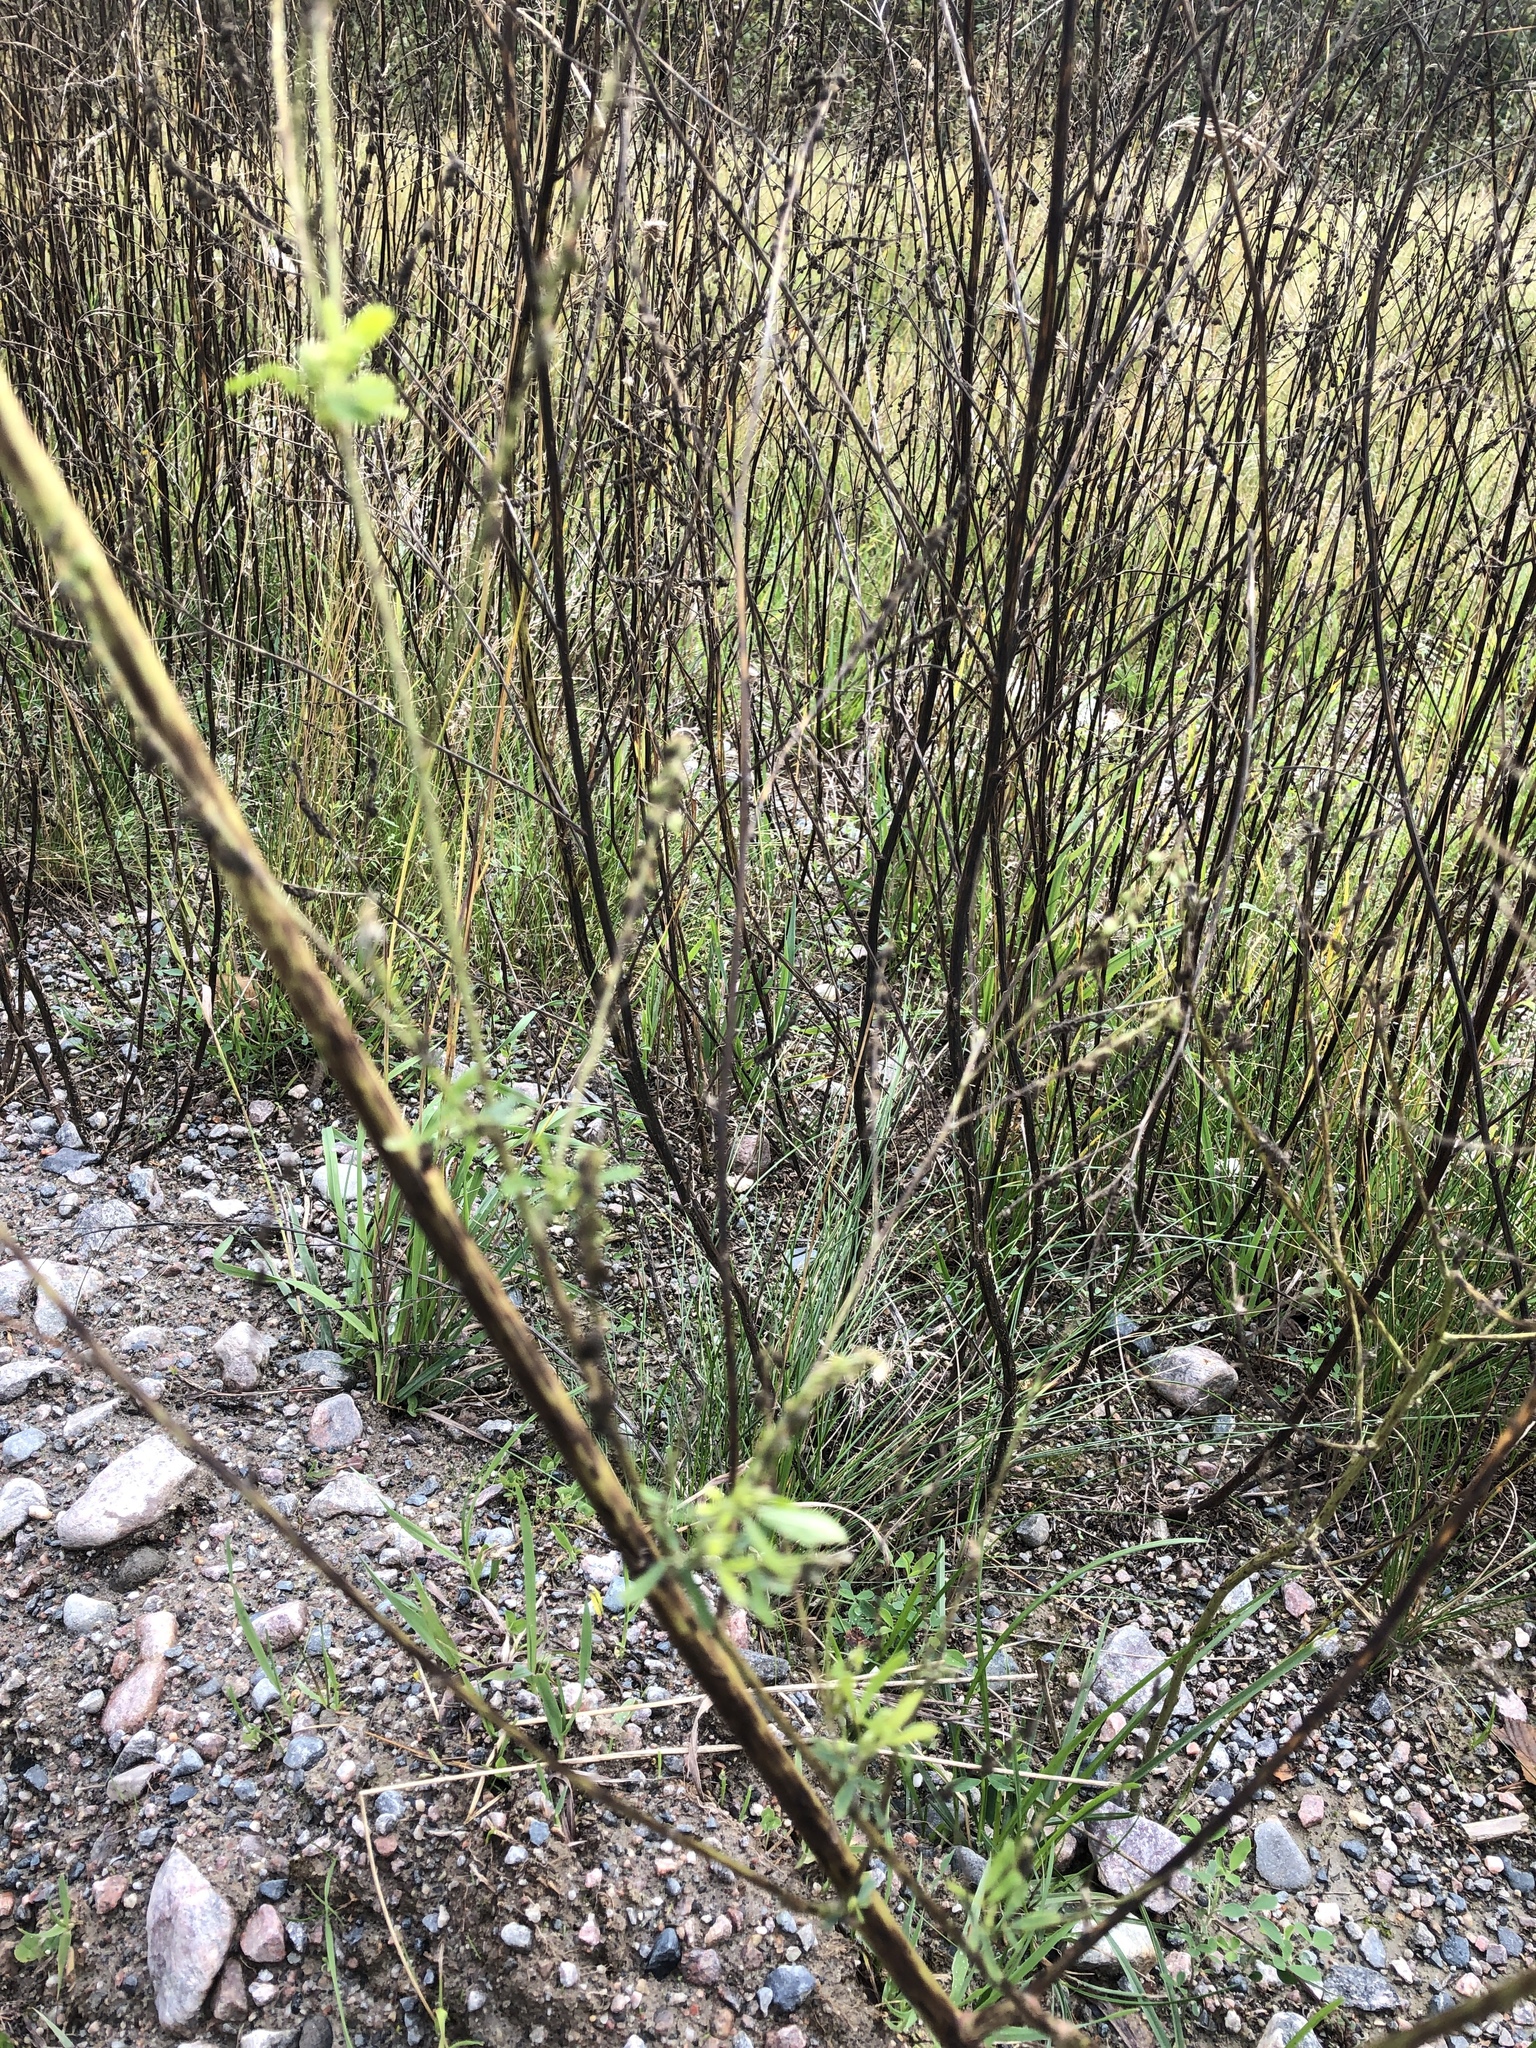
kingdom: Plantae
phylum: Tracheophyta
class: Magnoliopsida
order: Fabales
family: Fabaceae
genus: Melilotus
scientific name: Melilotus albus
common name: White melilot
